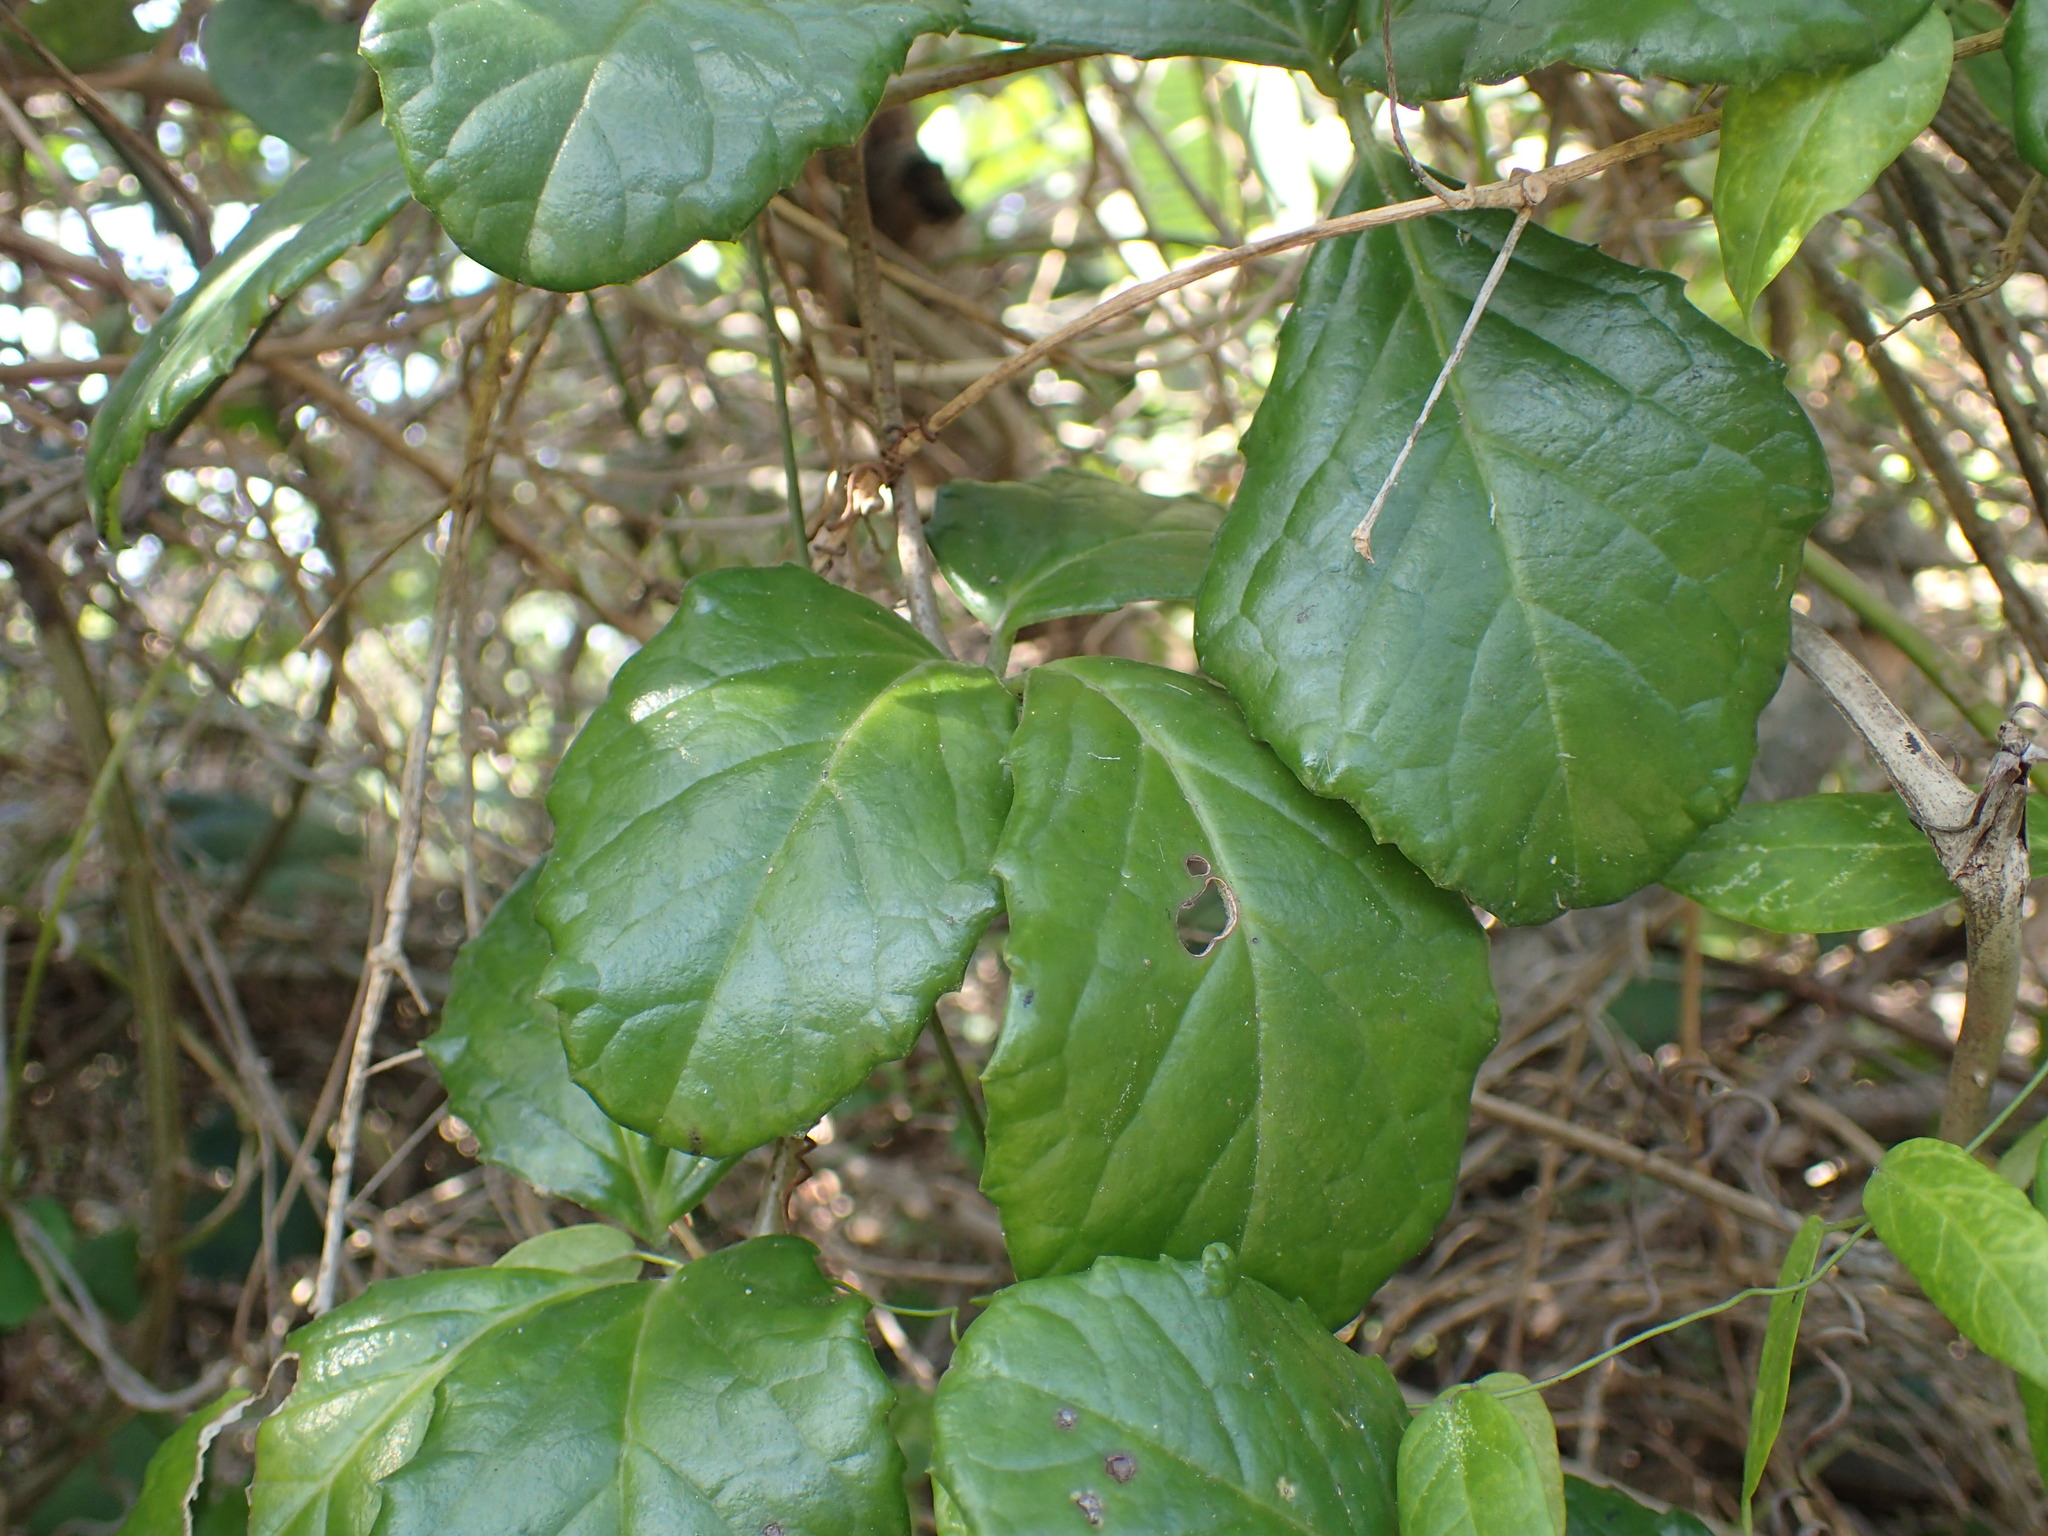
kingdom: Plantae
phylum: Tracheophyta
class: Magnoliopsida
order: Vitales
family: Vitaceae
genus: Cyphostemma
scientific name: Cyphostemma flaviflorum
